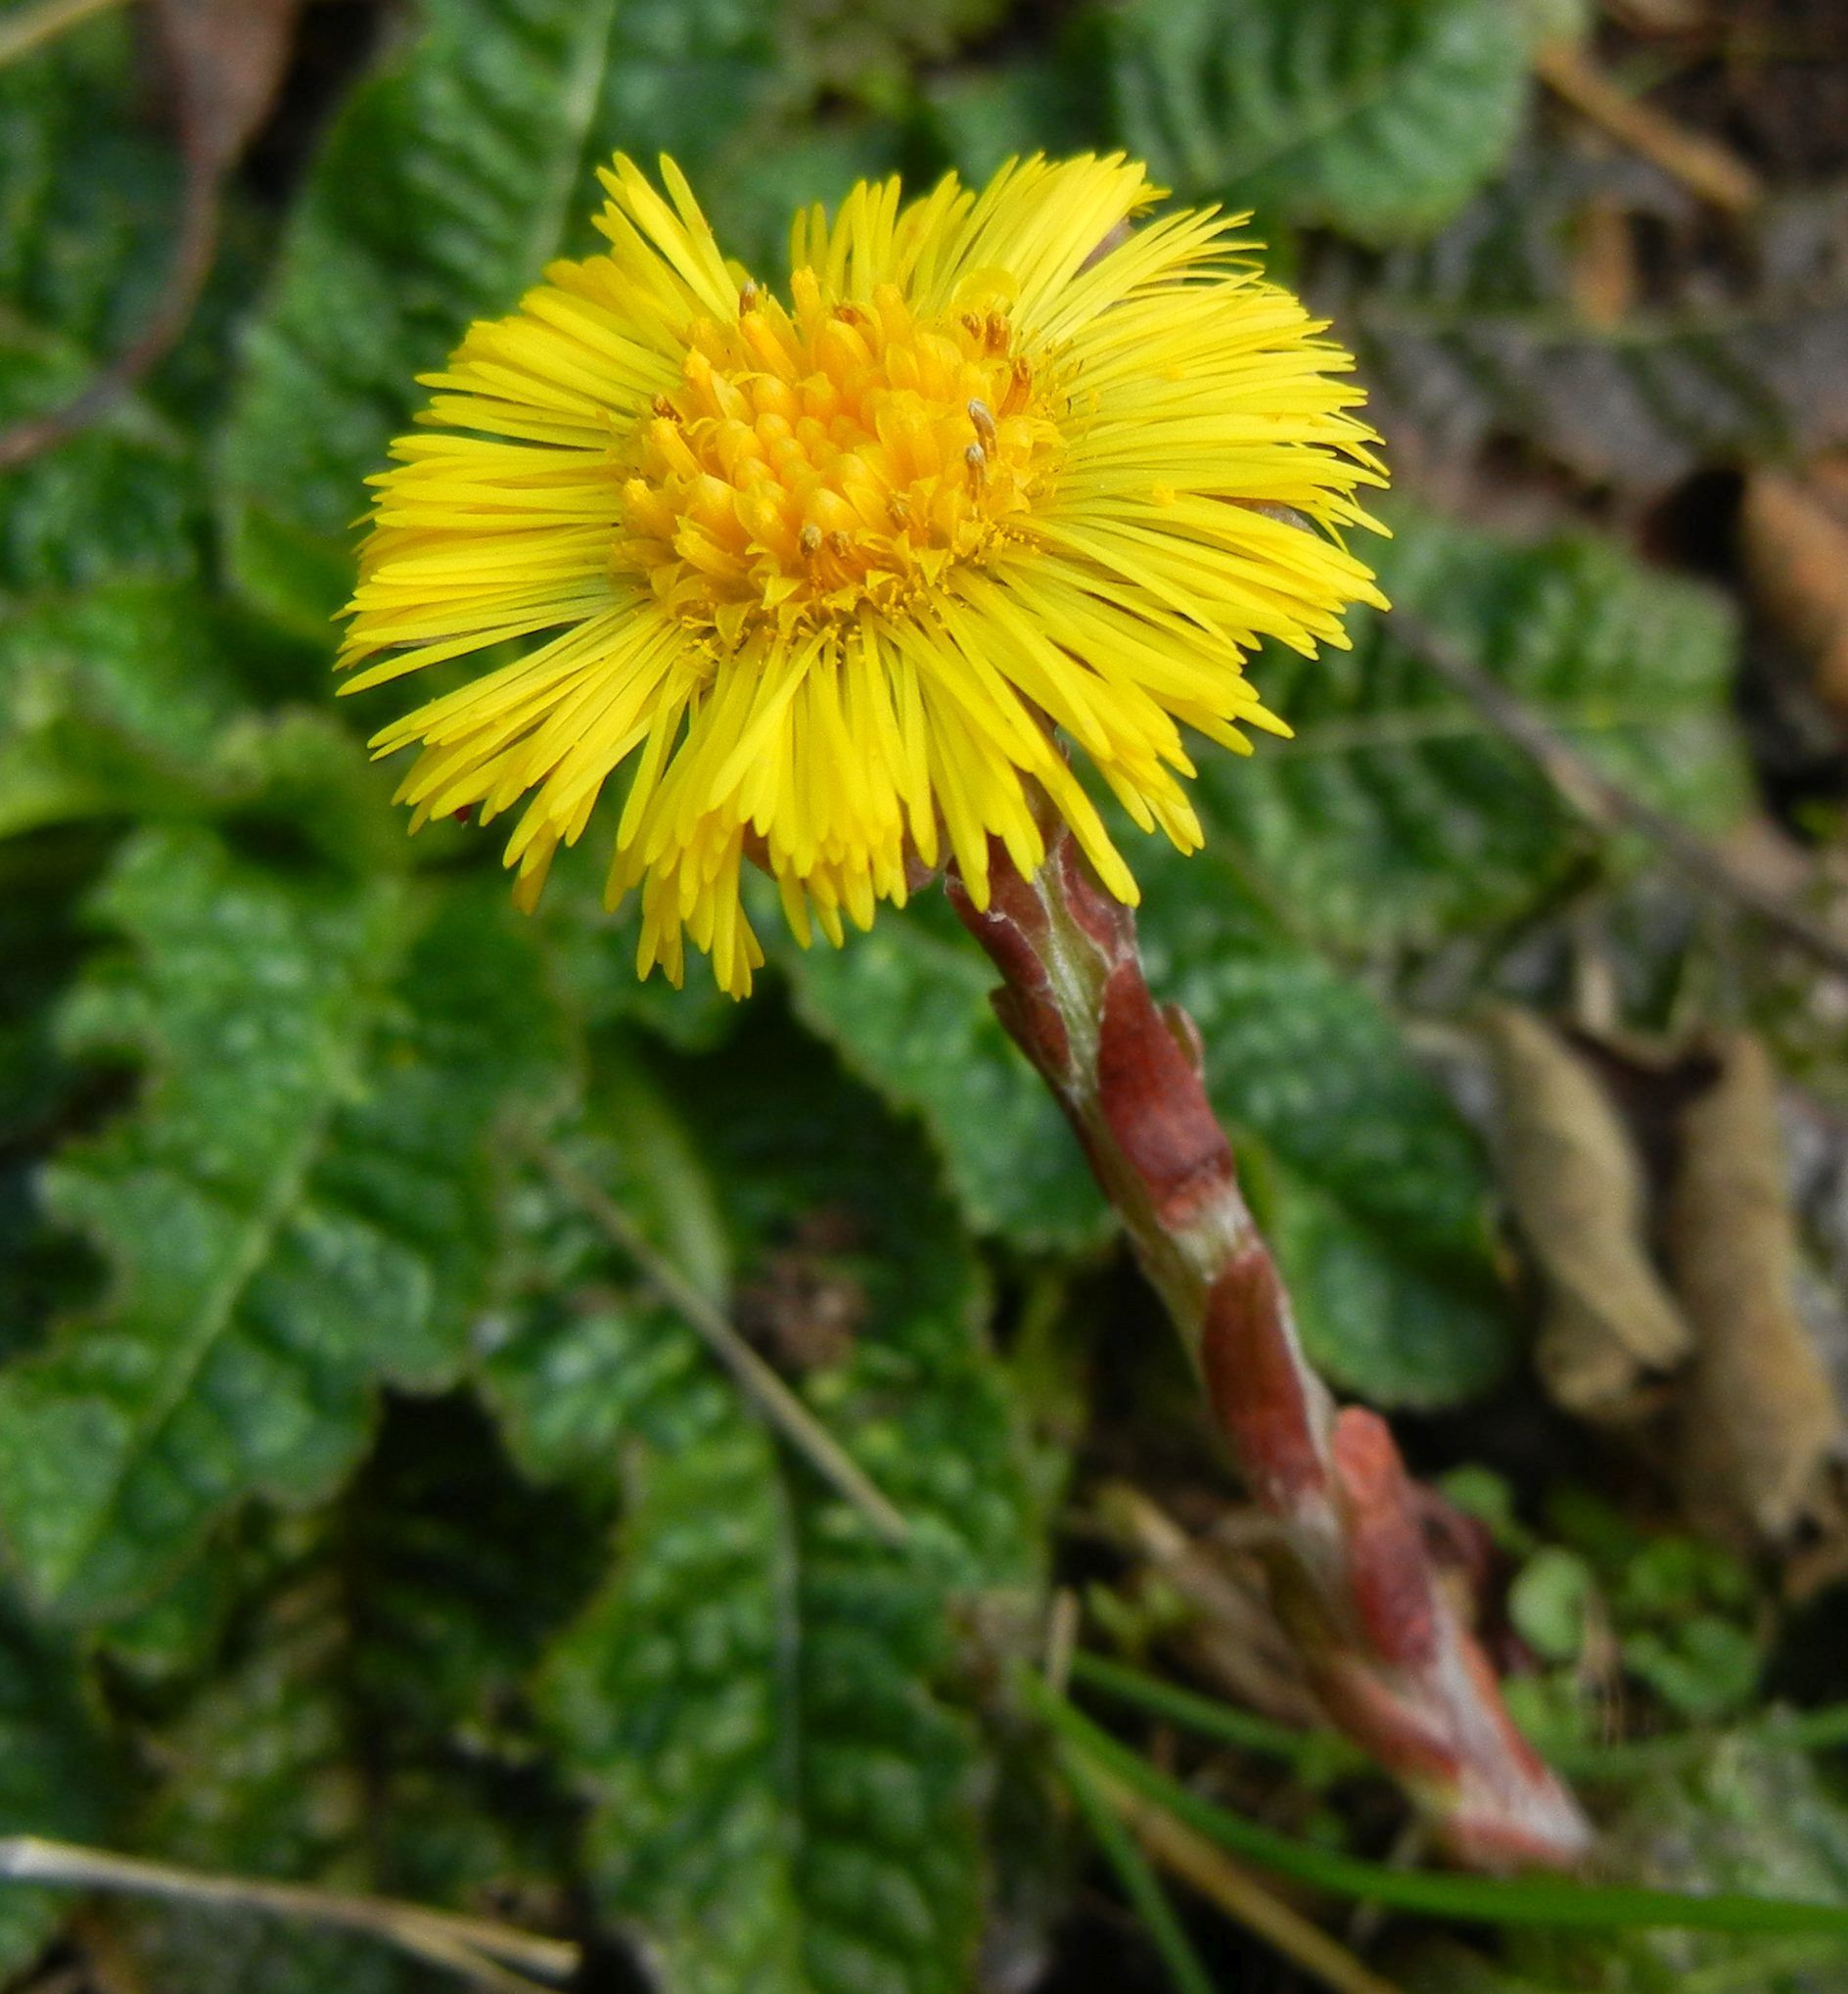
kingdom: Plantae
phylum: Tracheophyta
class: Magnoliopsida
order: Asterales
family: Asteraceae
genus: Tussilago
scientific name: Tussilago farfara
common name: Coltsfoot
